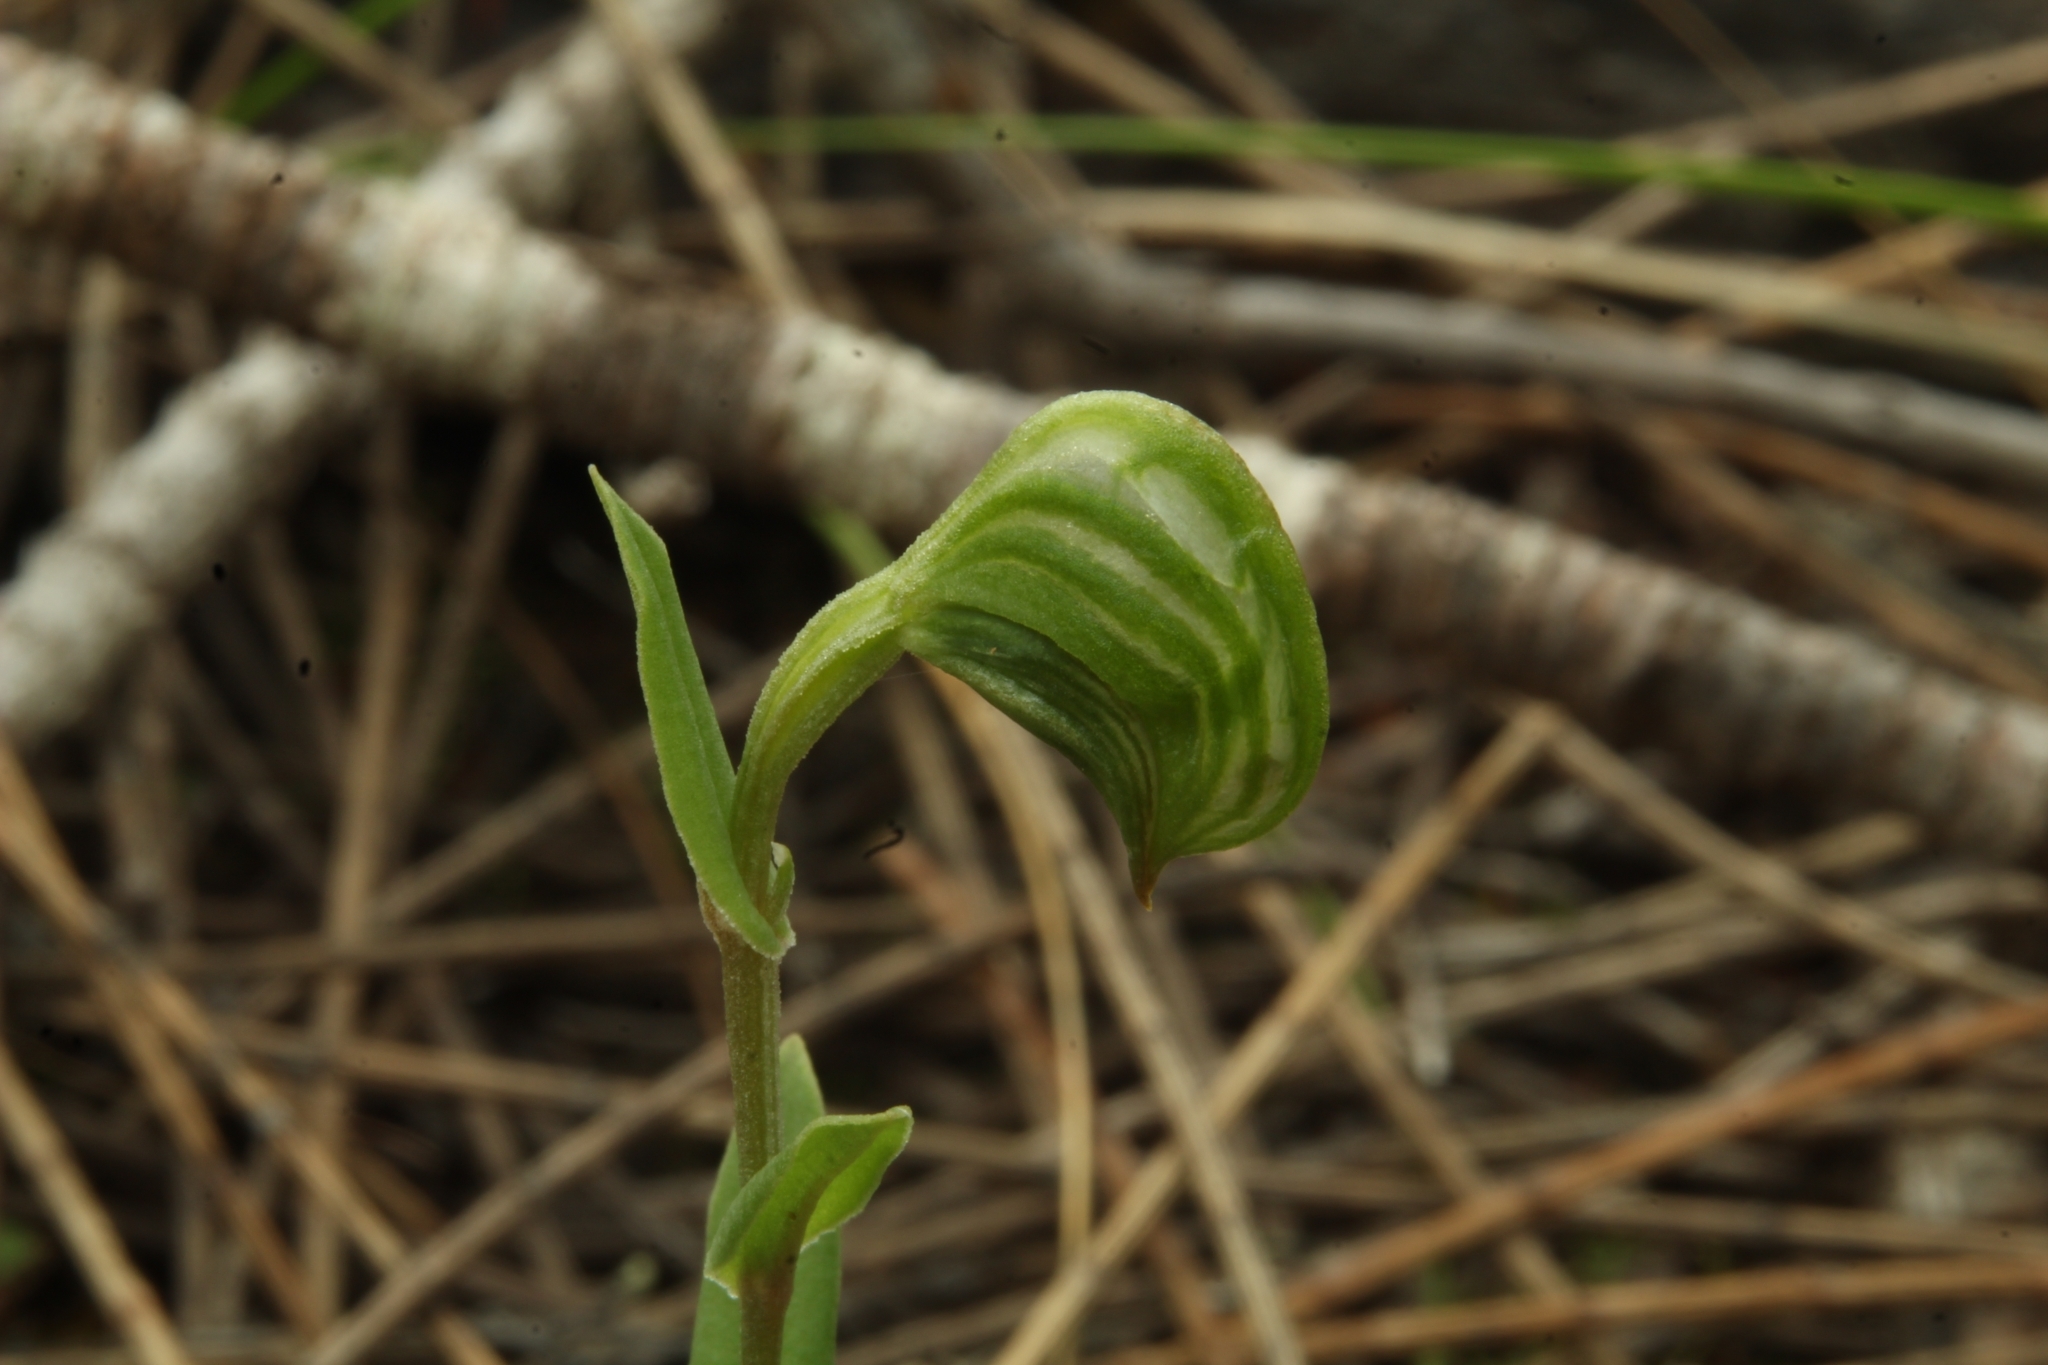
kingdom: Plantae
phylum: Tracheophyta
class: Liliopsida
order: Asparagales
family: Orchidaceae
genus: Pterostylis
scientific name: Pterostylis vittata
